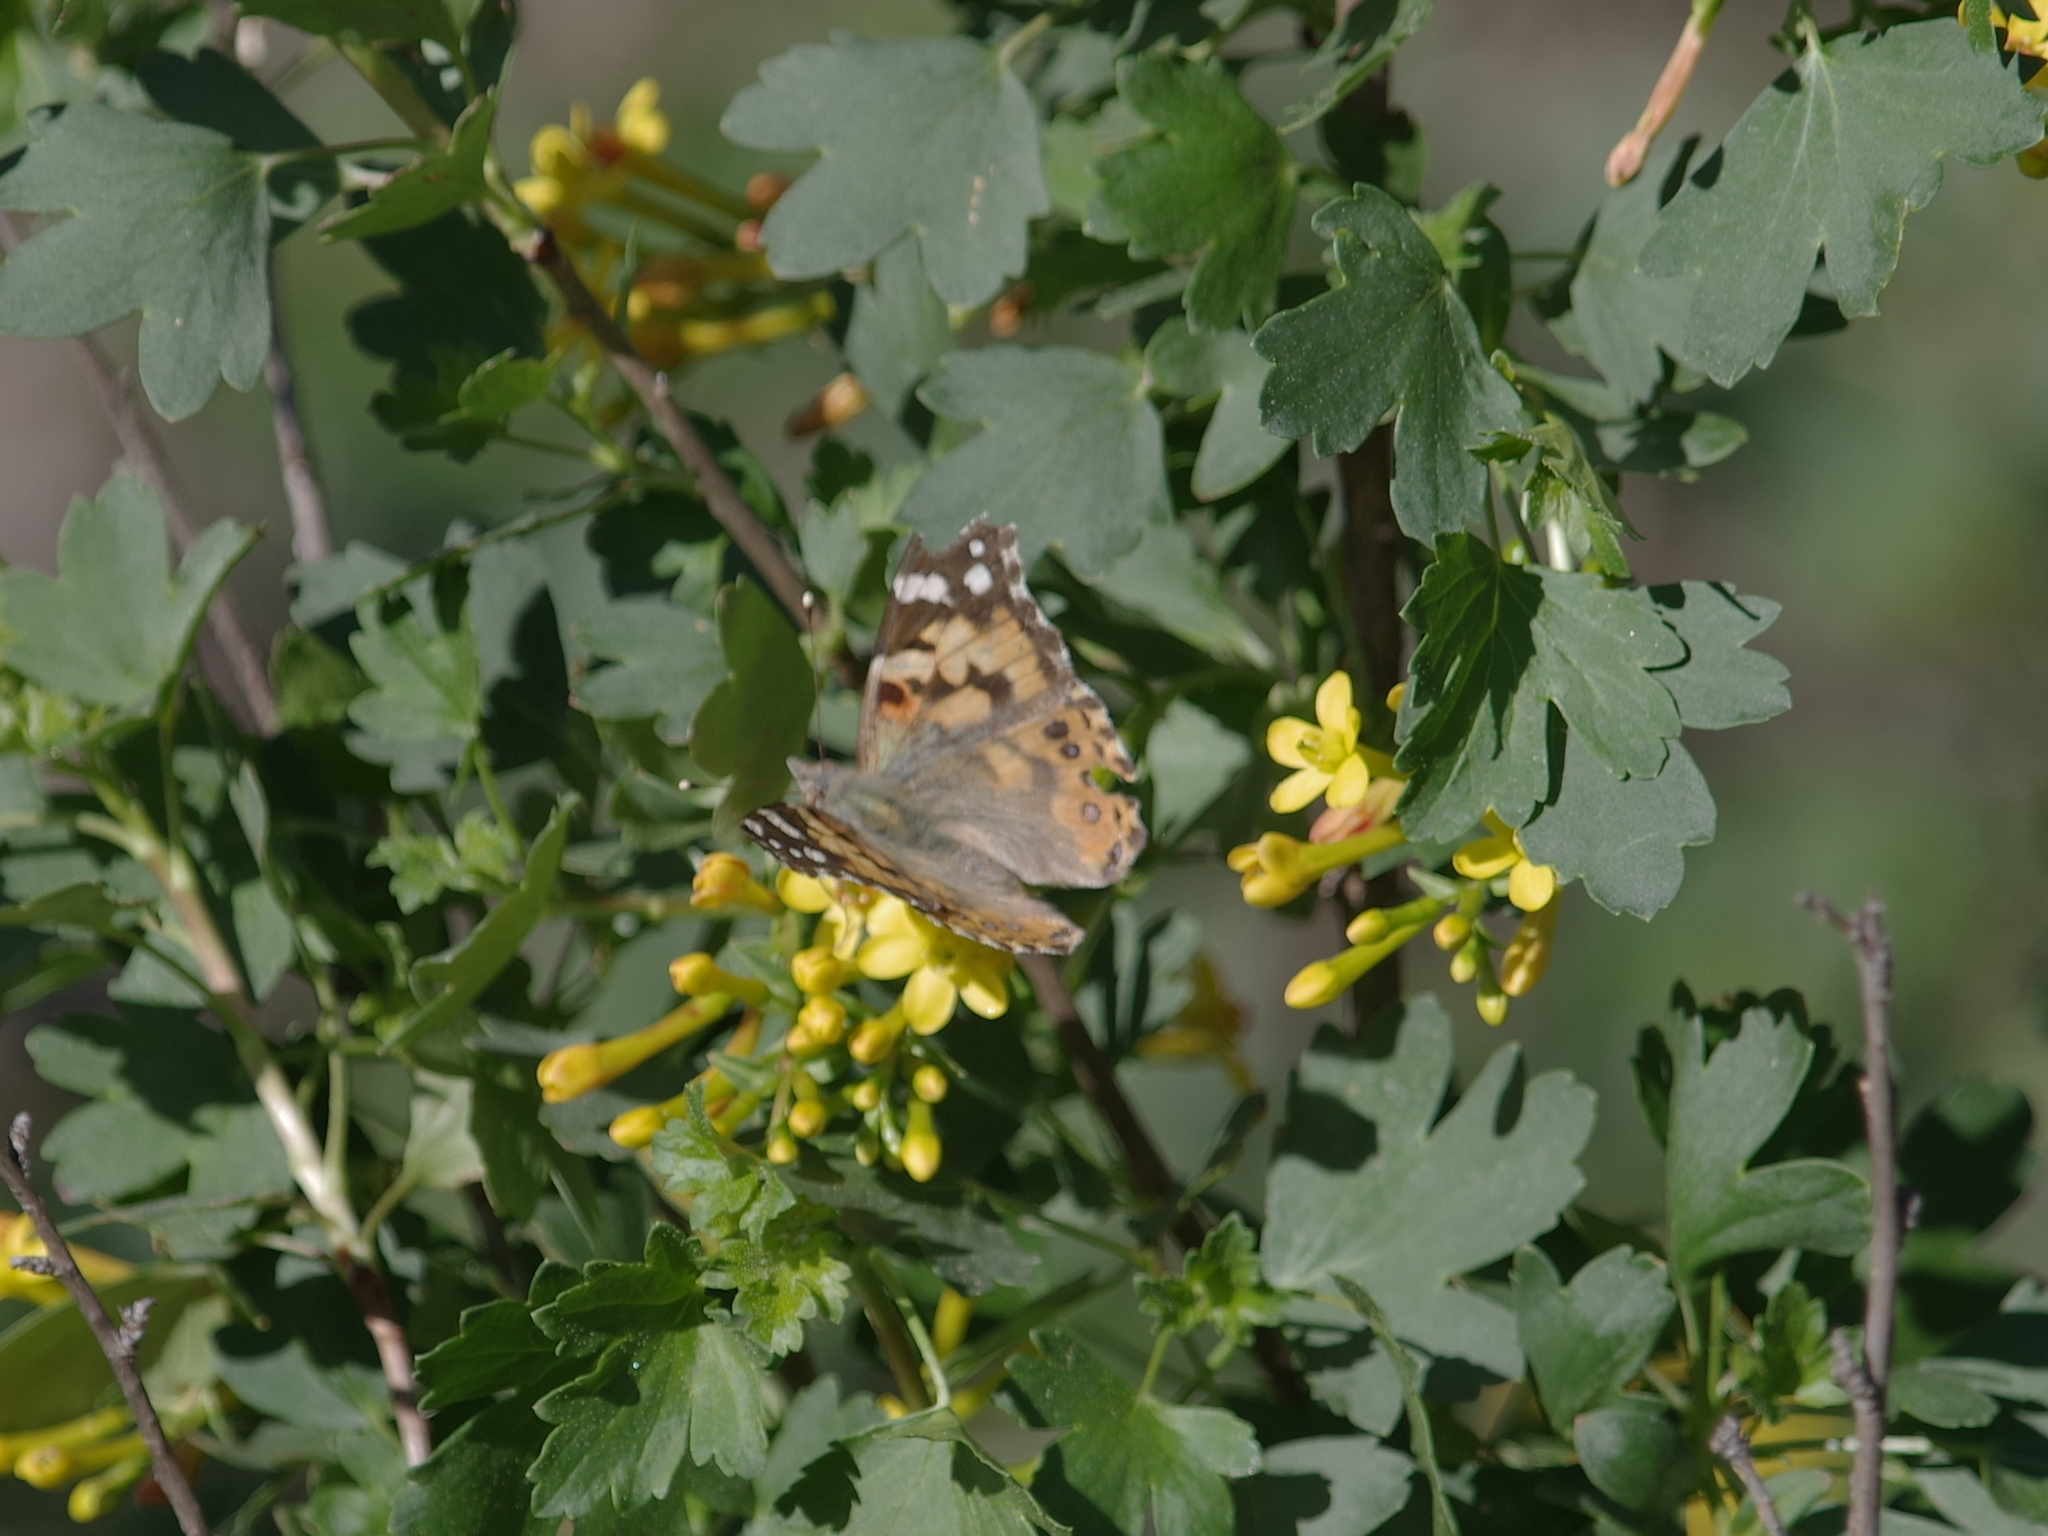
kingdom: Animalia
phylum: Arthropoda
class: Insecta
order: Lepidoptera
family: Nymphalidae
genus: Vanessa
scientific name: Vanessa cardui
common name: Painted lady
